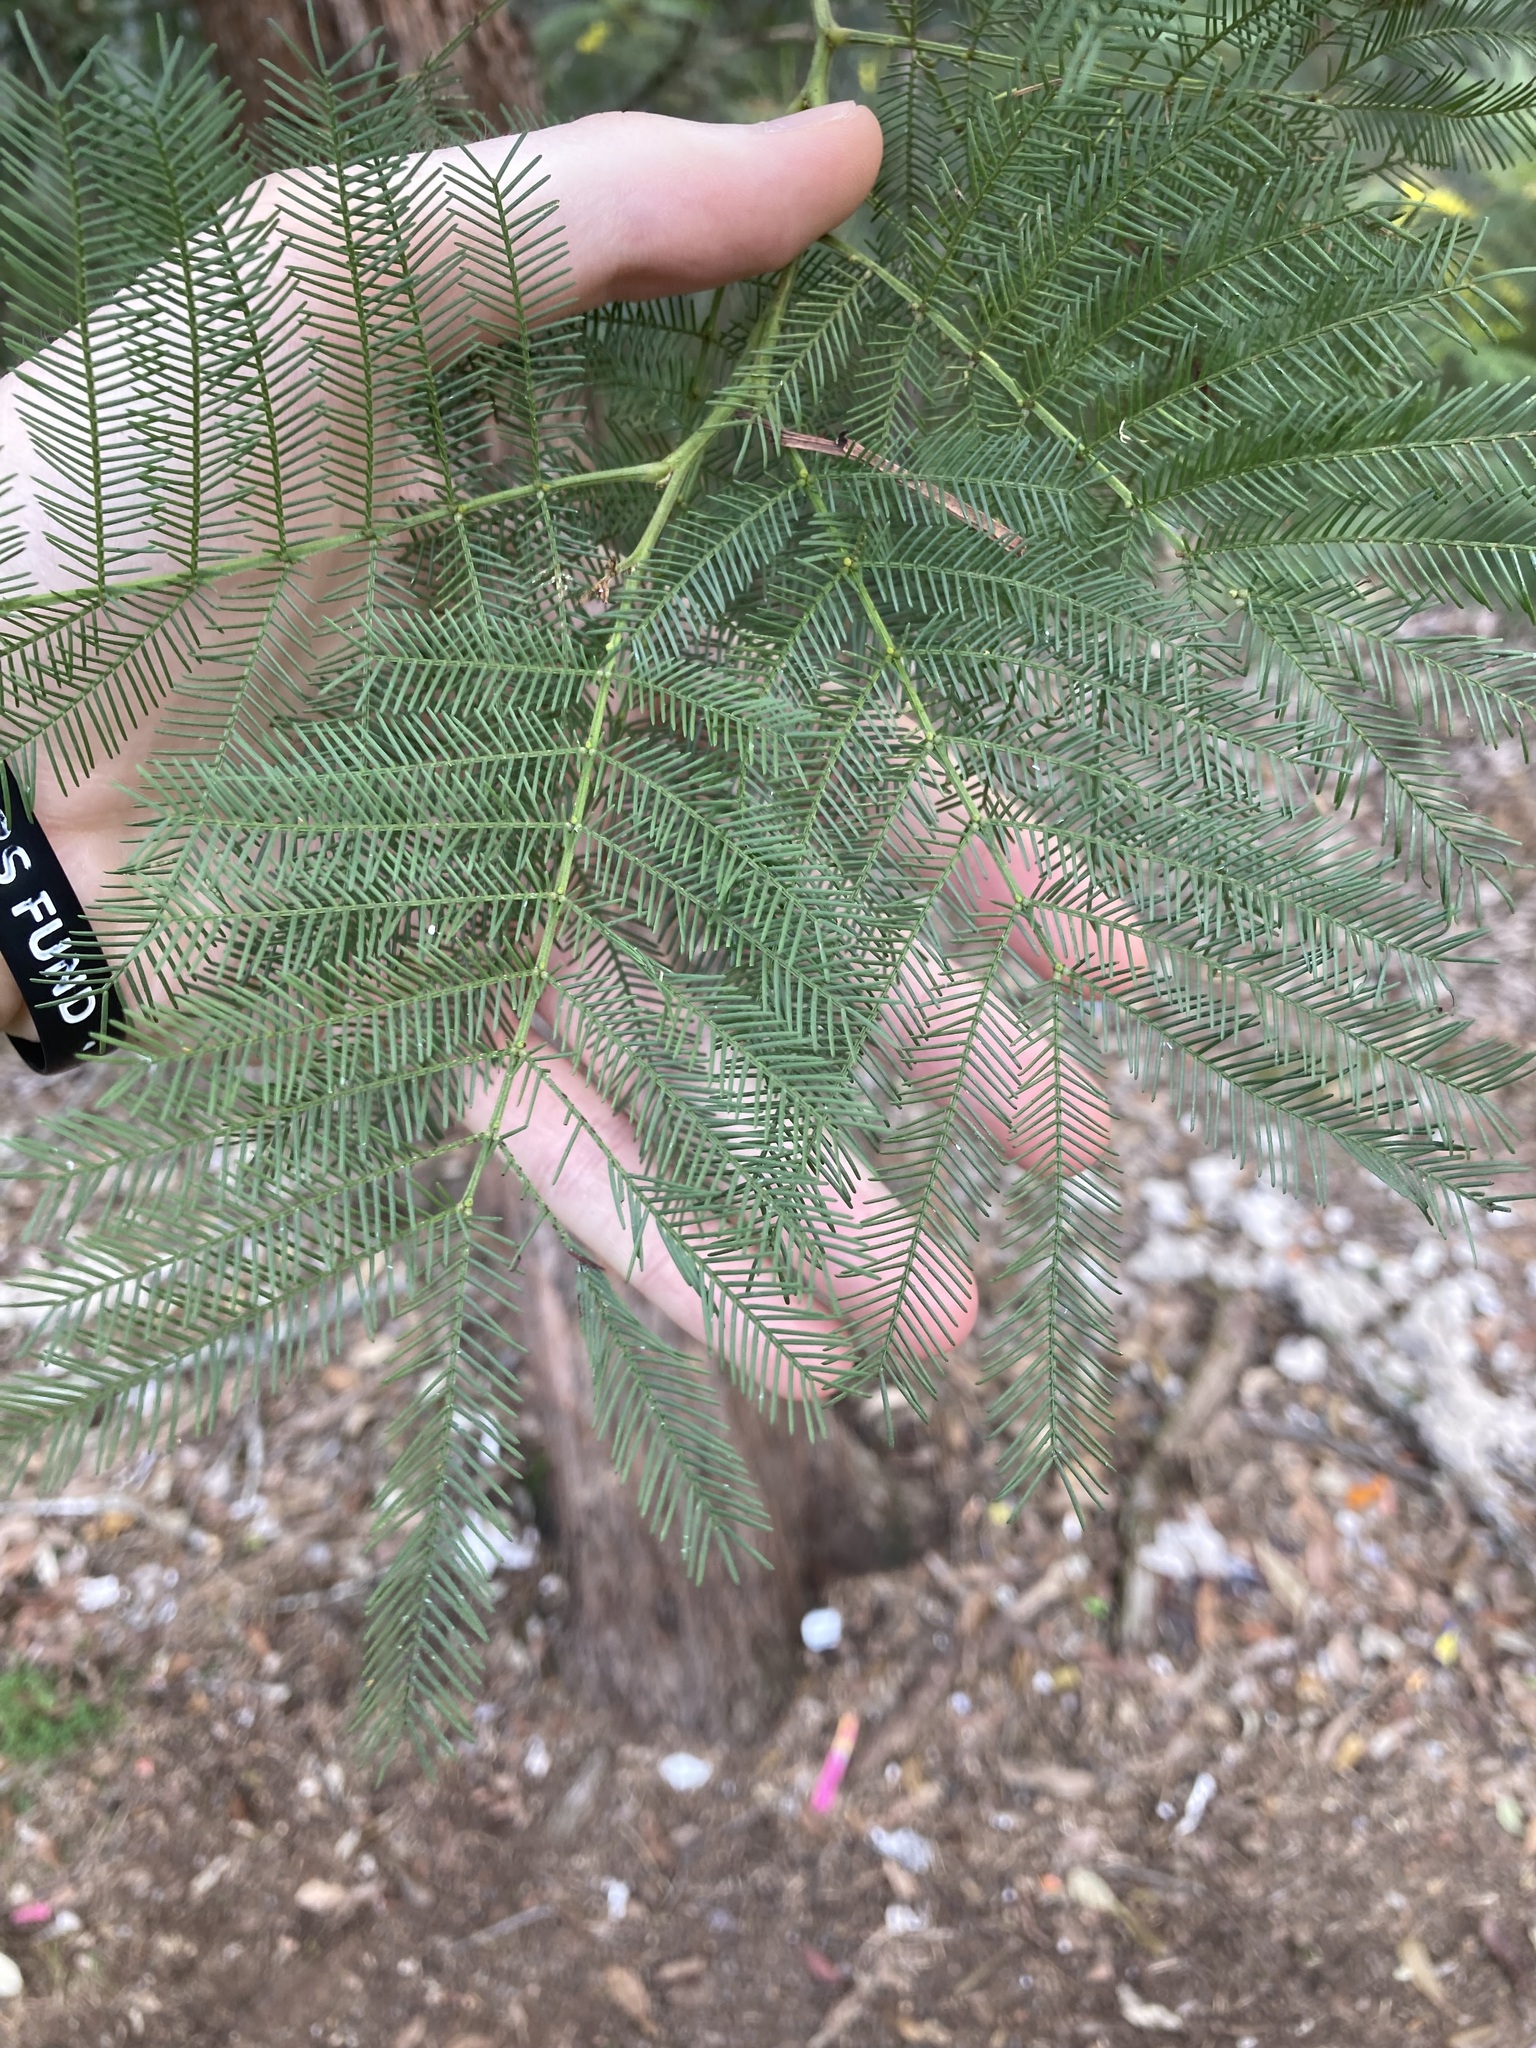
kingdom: Plantae
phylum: Tracheophyta
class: Magnoliopsida
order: Fabales
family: Fabaceae
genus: Acacia
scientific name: Acacia decurrens
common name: Green wattle
